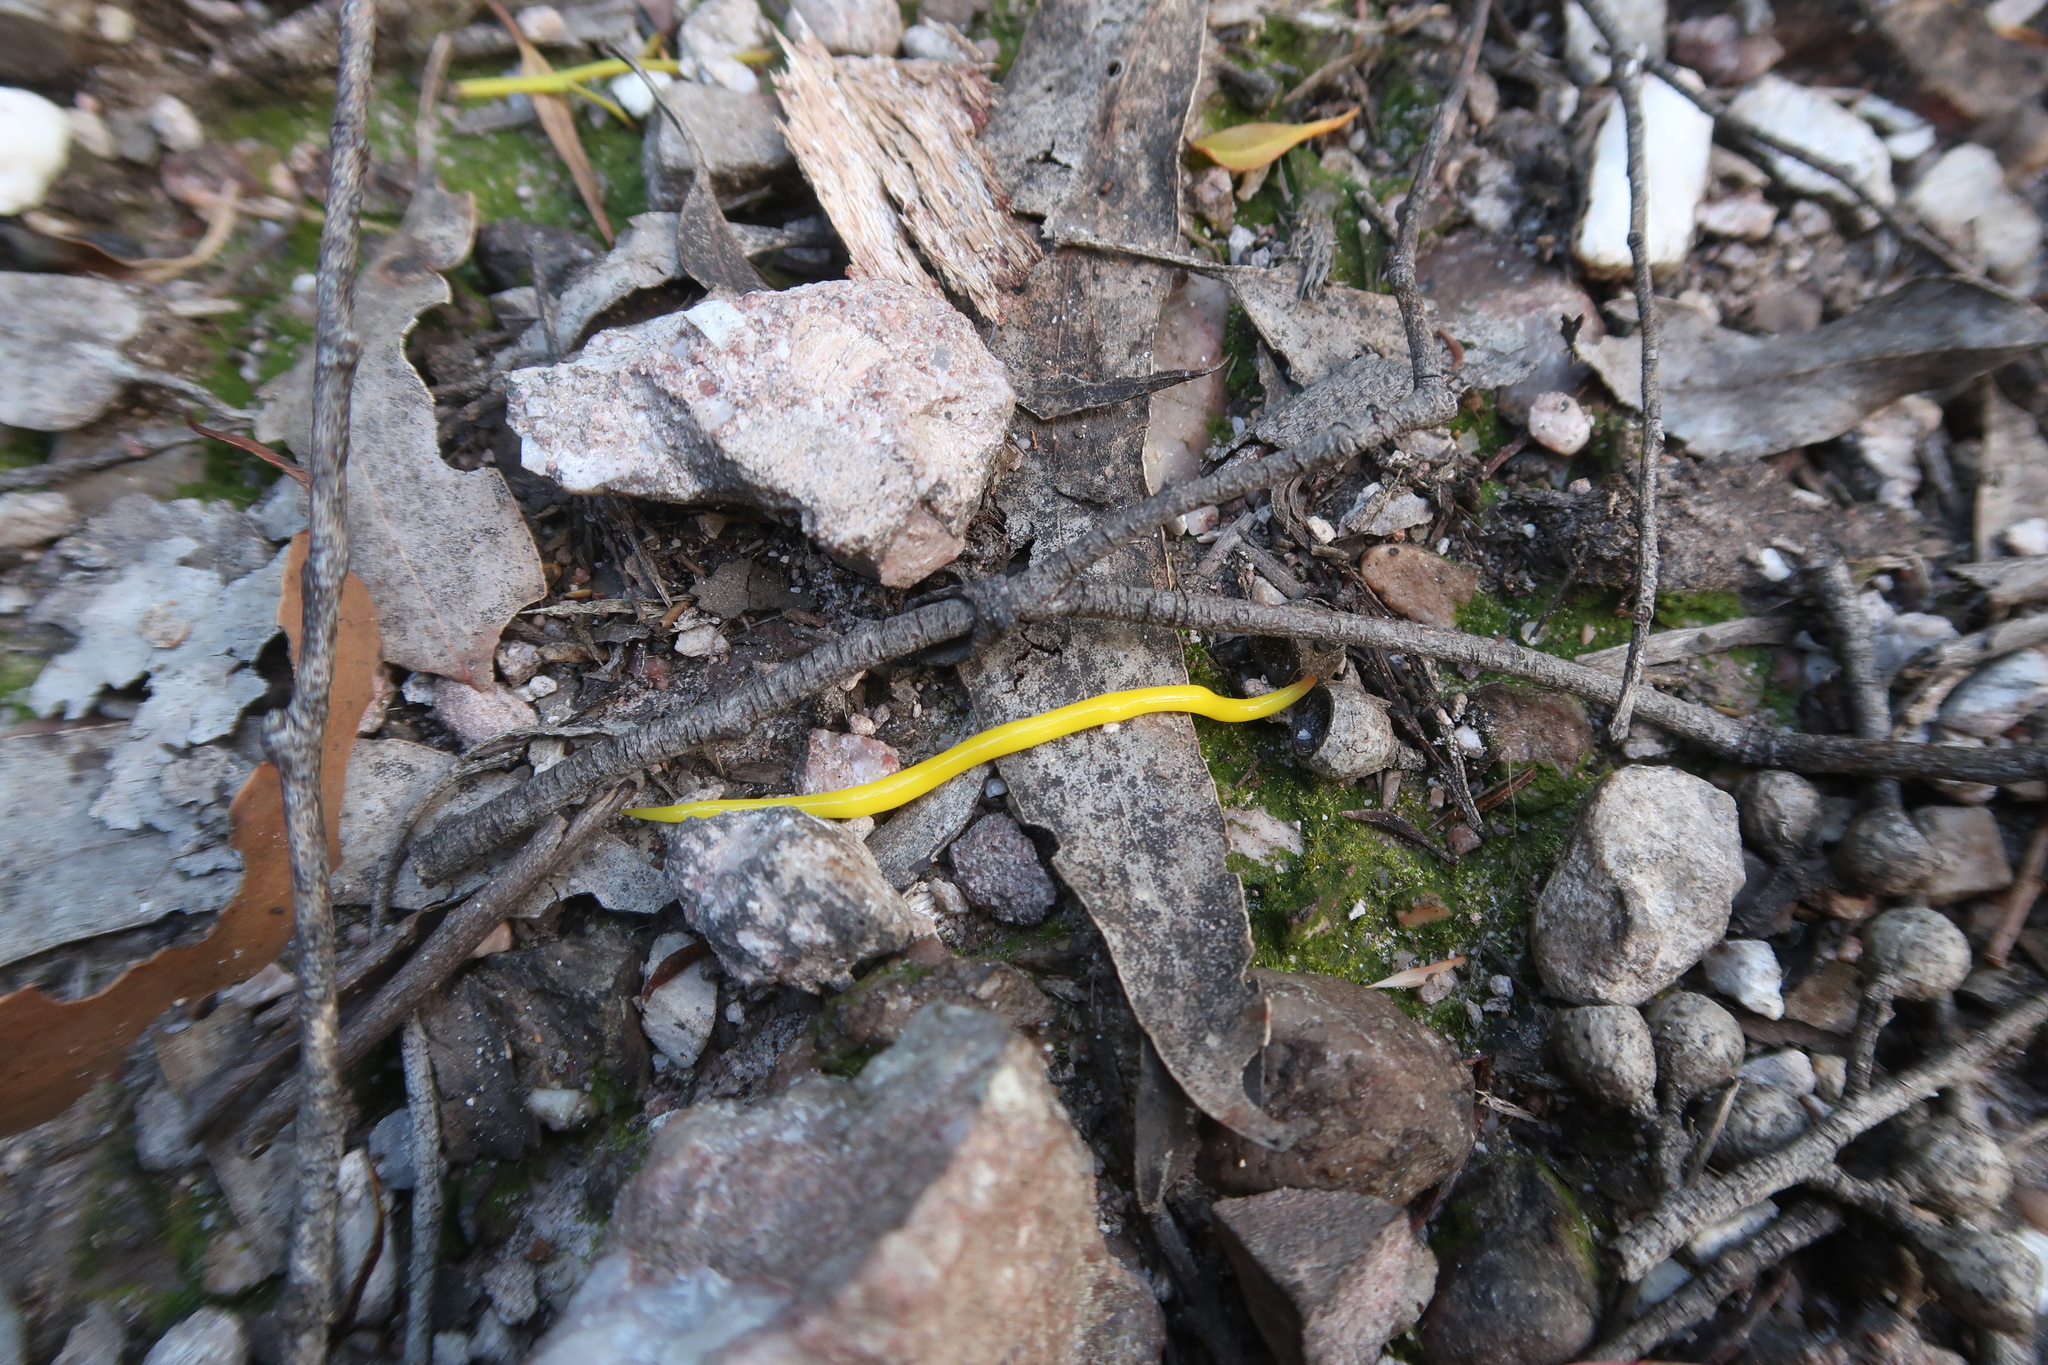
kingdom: Animalia
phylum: Platyhelminthes
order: Tricladida
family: Geoplanidae
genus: Fletchamia
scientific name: Fletchamia sugdeni
